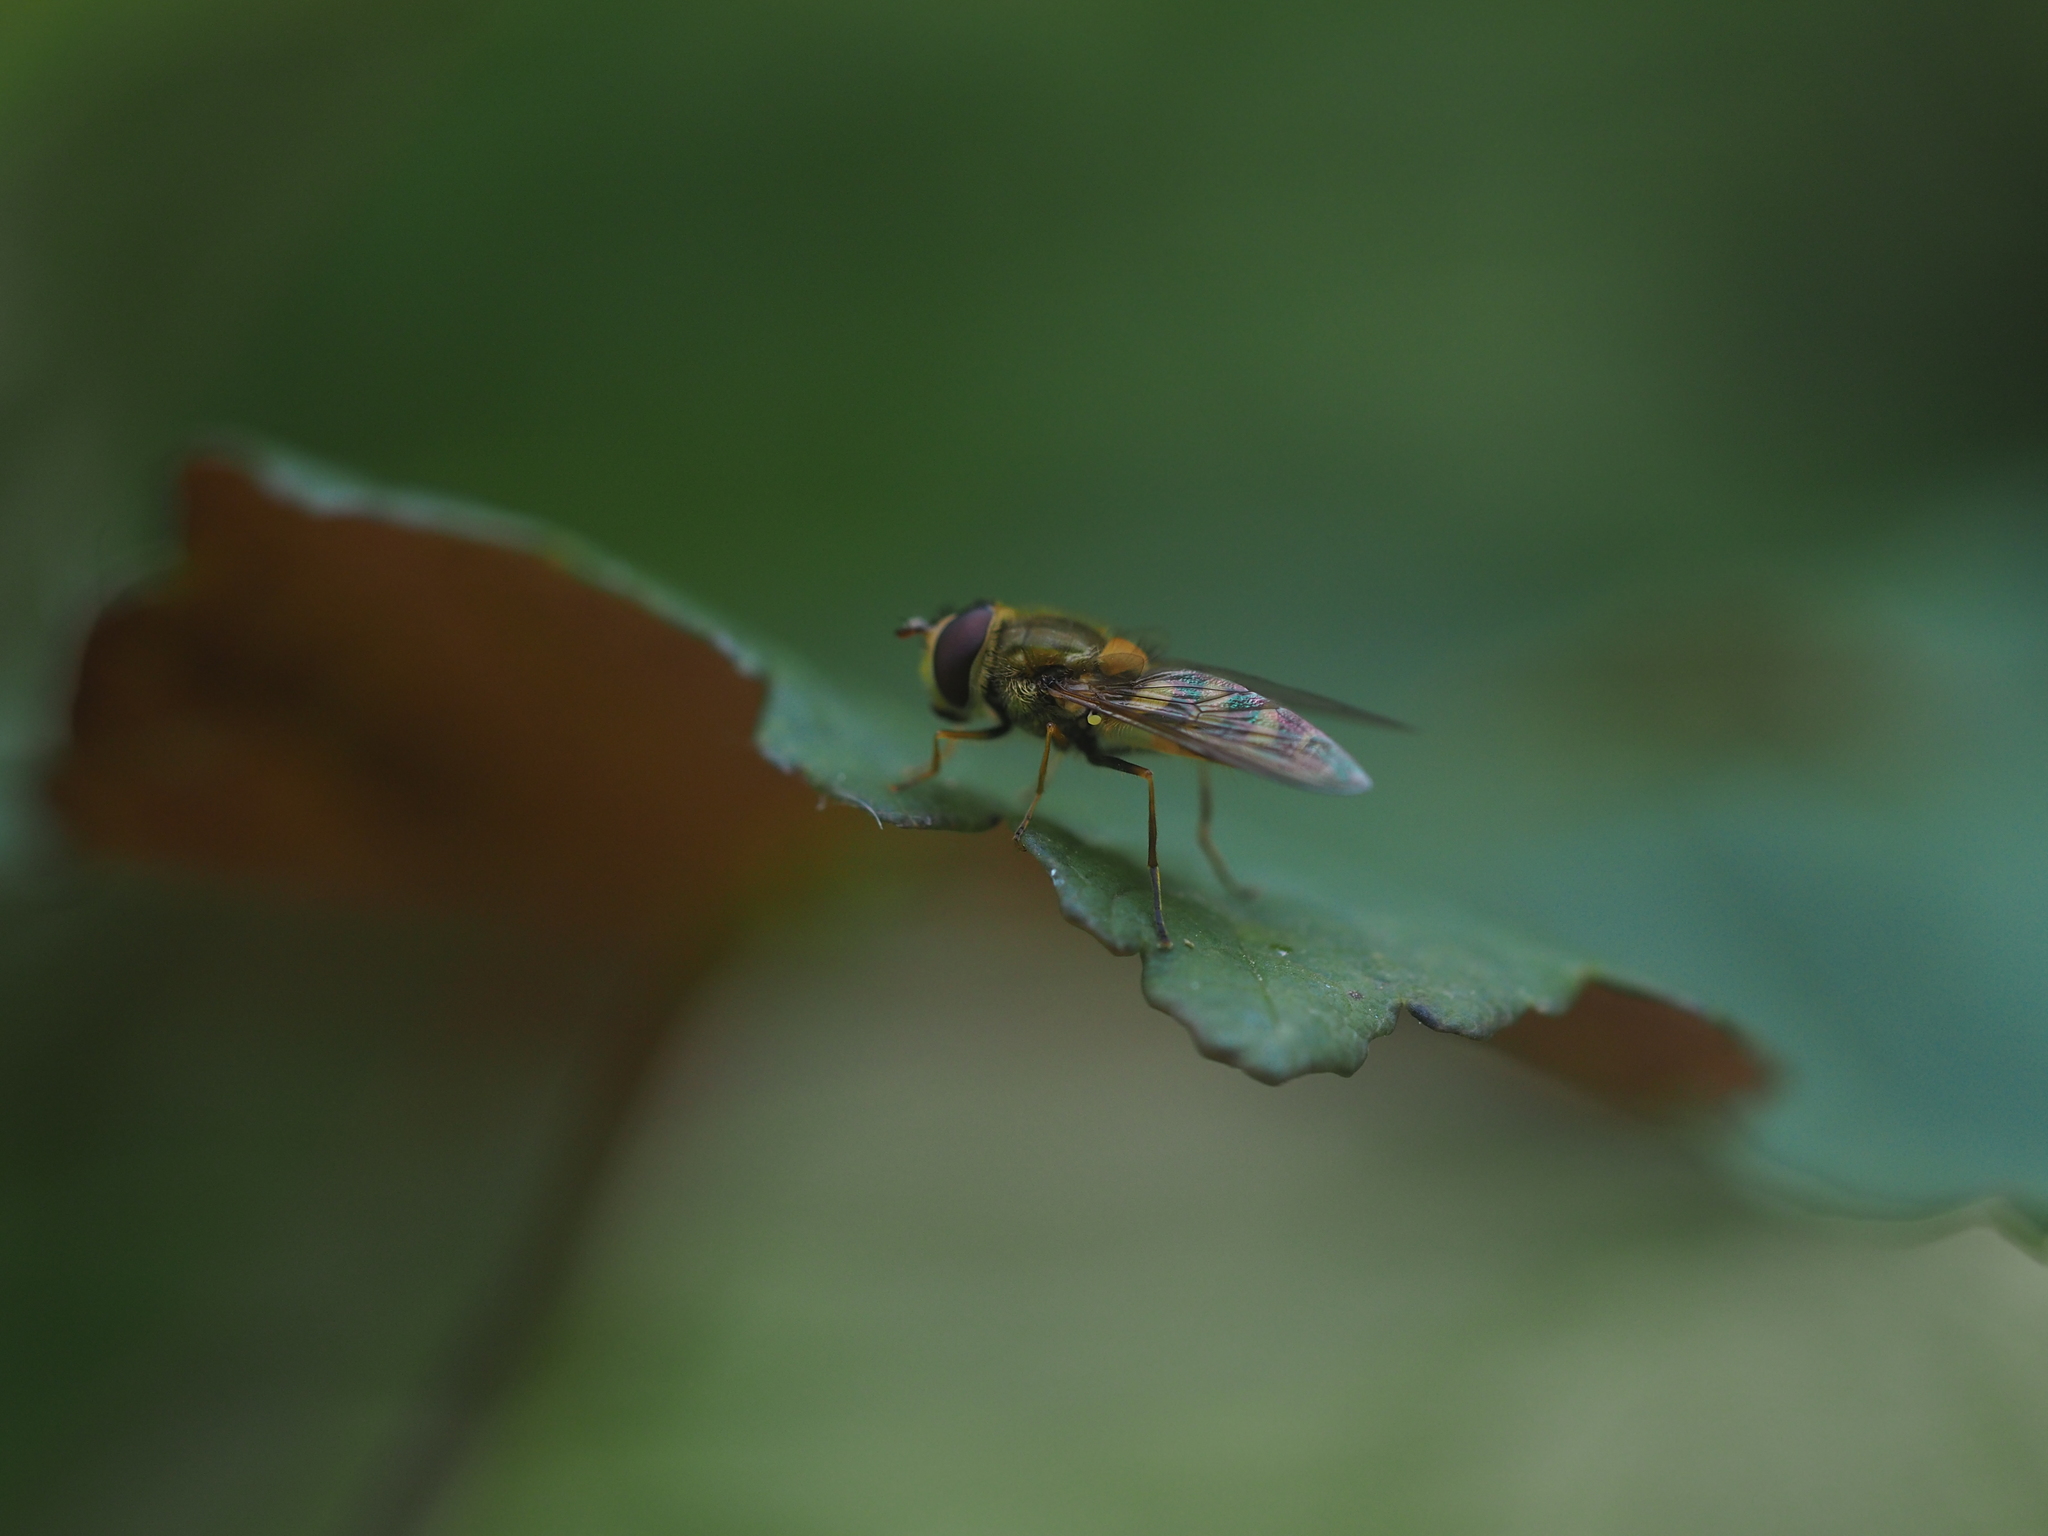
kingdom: Animalia
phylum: Arthropoda
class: Insecta
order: Diptera
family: Syrphidae
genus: Syrphus
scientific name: Syrphus
